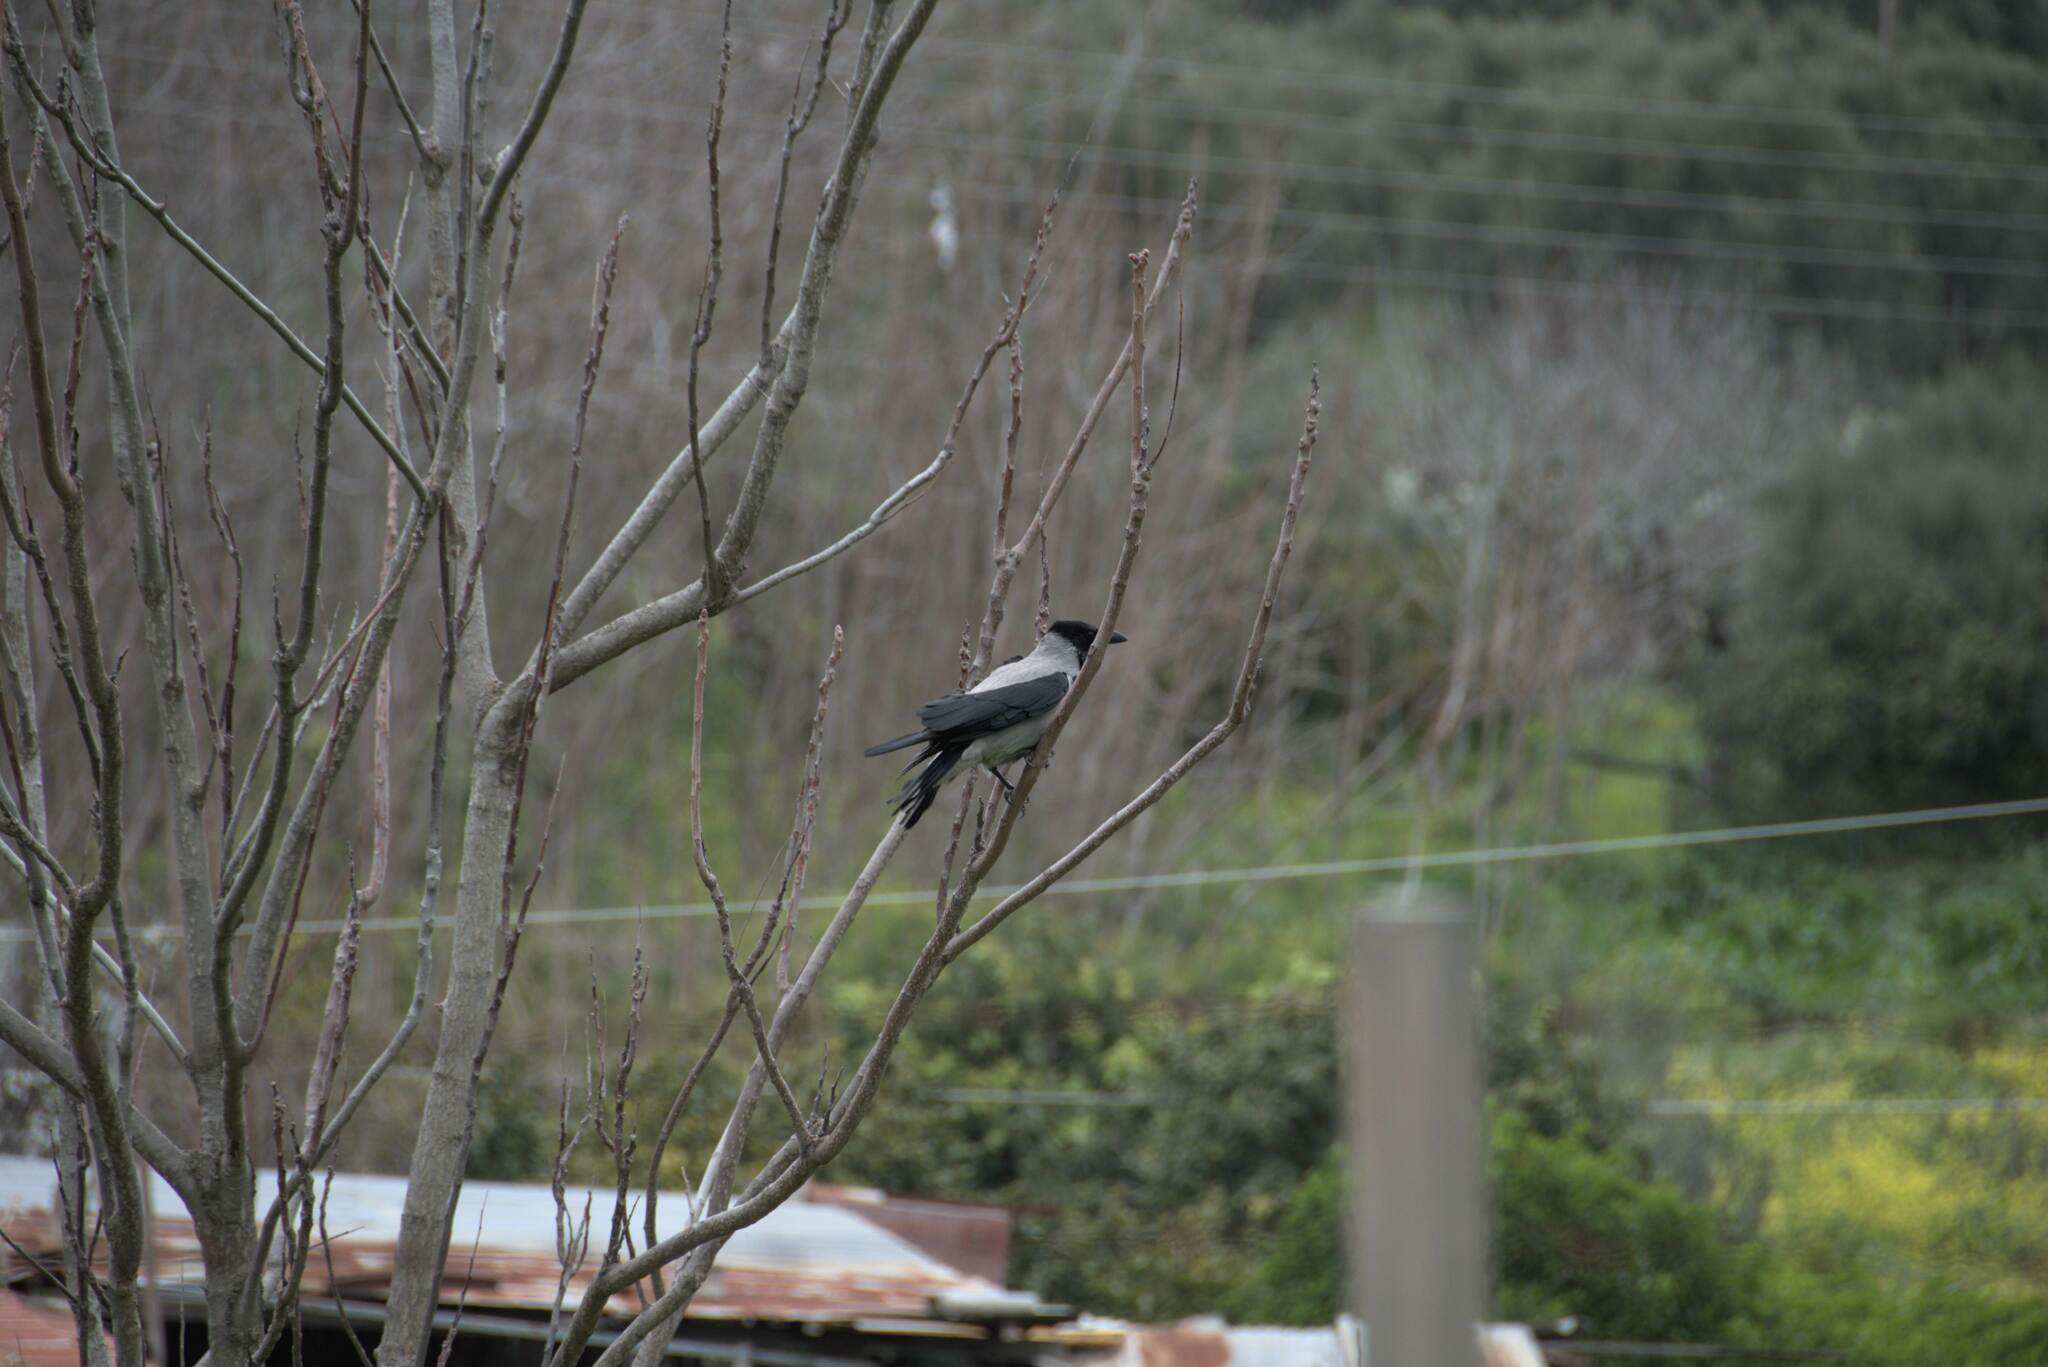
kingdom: Animalia
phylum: Chordata
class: Aves
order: Passeriformes
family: Corvidae
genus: Corvus
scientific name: Corvus cornix
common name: Hooded crow
